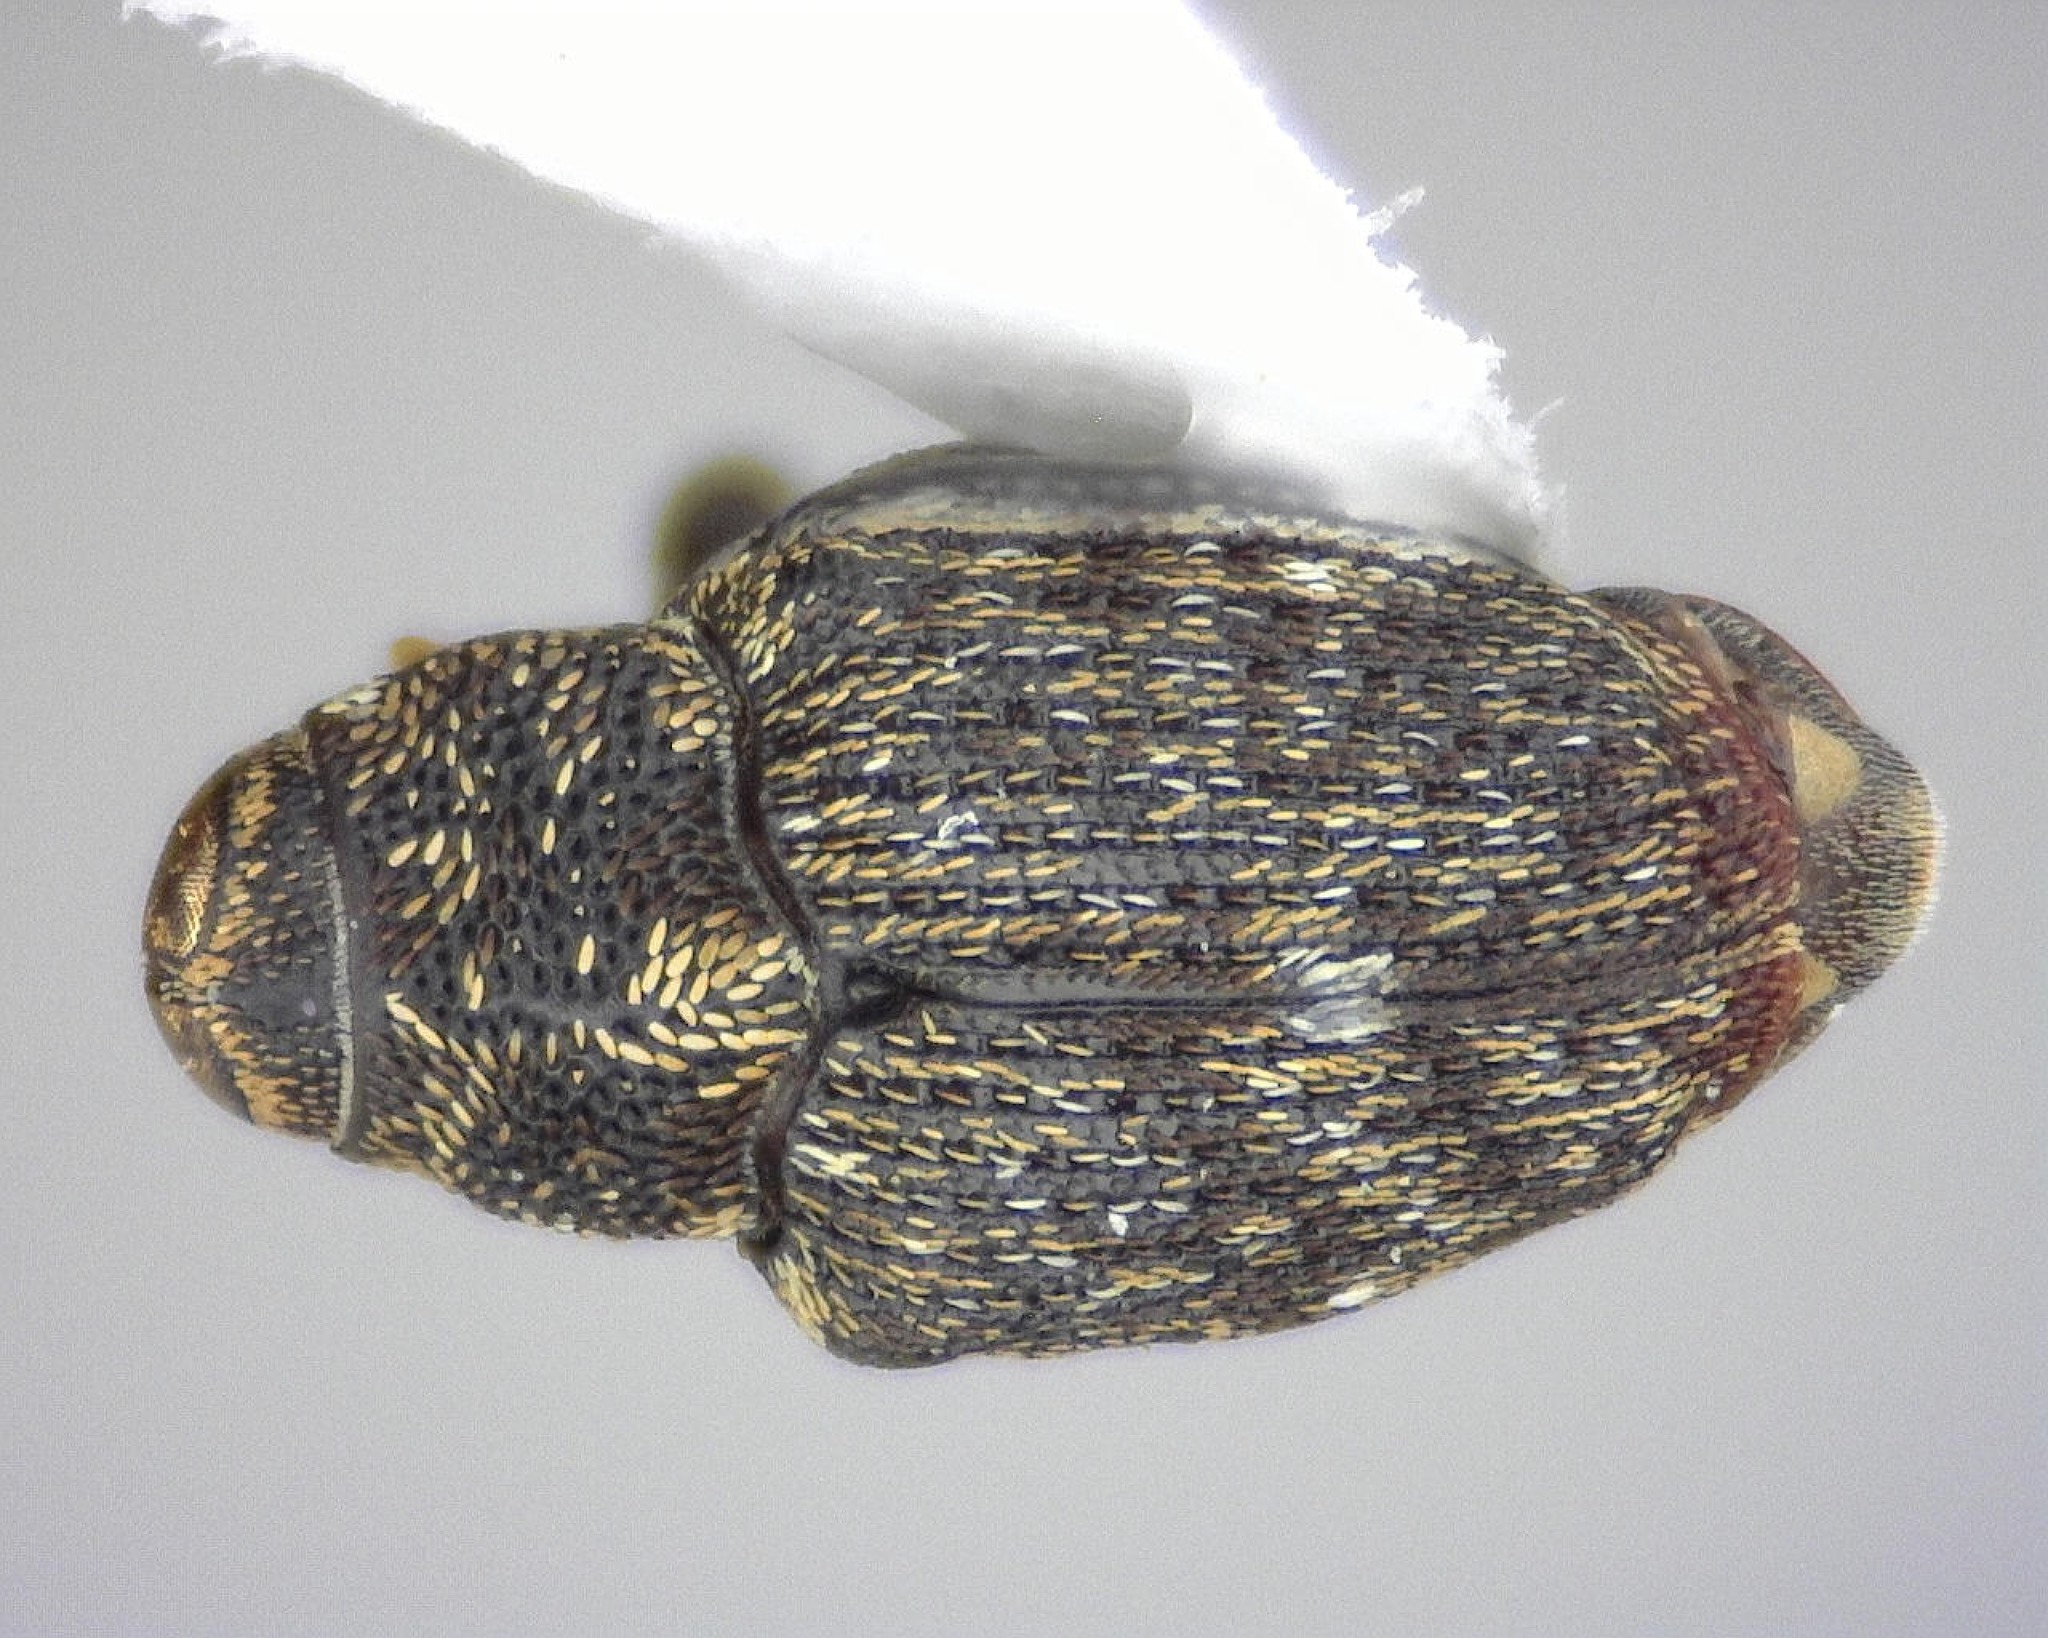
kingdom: Animalia
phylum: Arthropoda
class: Insecta
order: Coleoptera
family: Curculionidae
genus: Lechriops
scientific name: Lechriops oculatus
